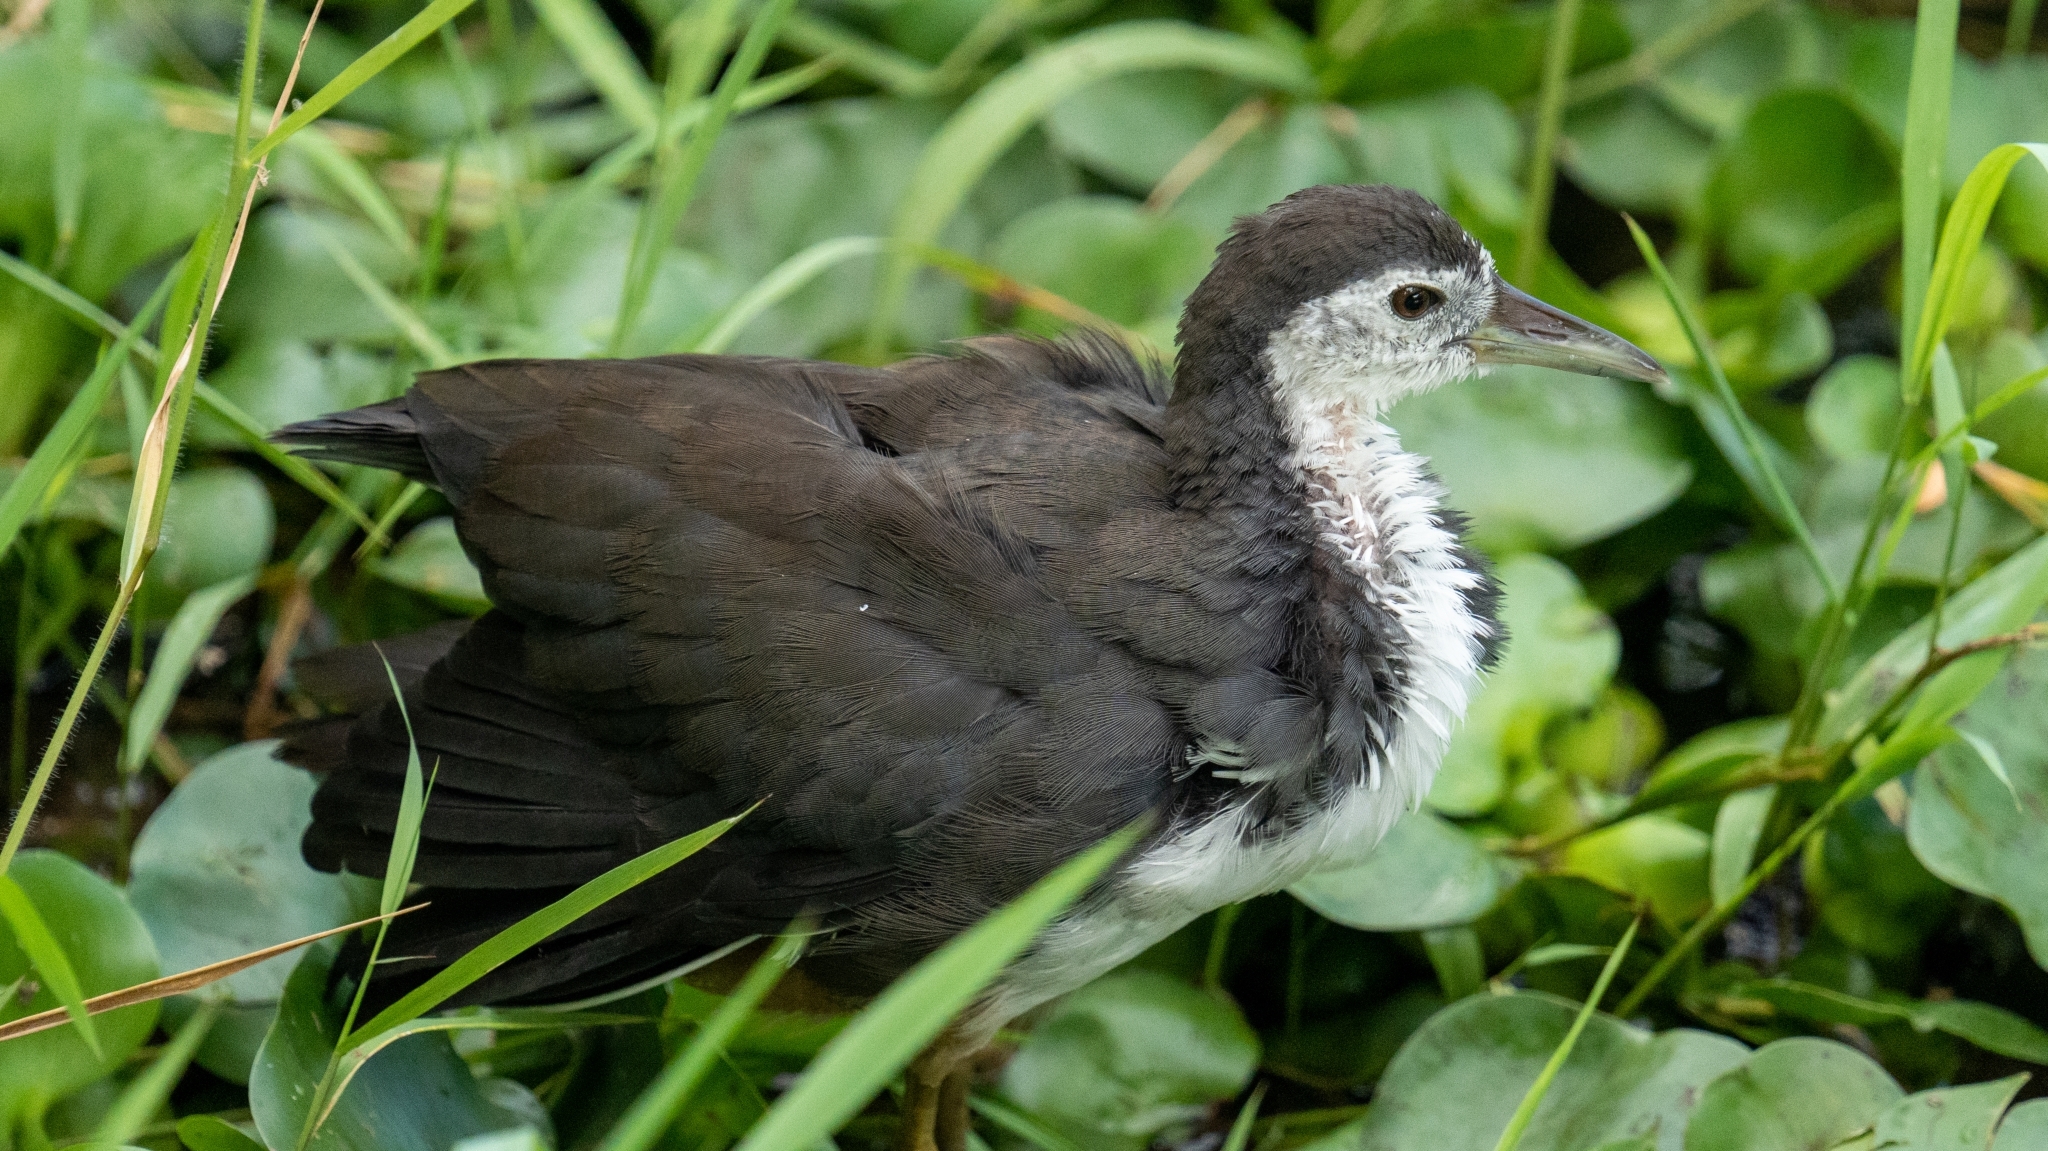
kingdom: Animalia
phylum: Chordata
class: Aves
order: Gruiformes
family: Rallidae
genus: Amaurornis
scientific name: Amaurornis phoenicurus
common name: White-breasted waterhen
